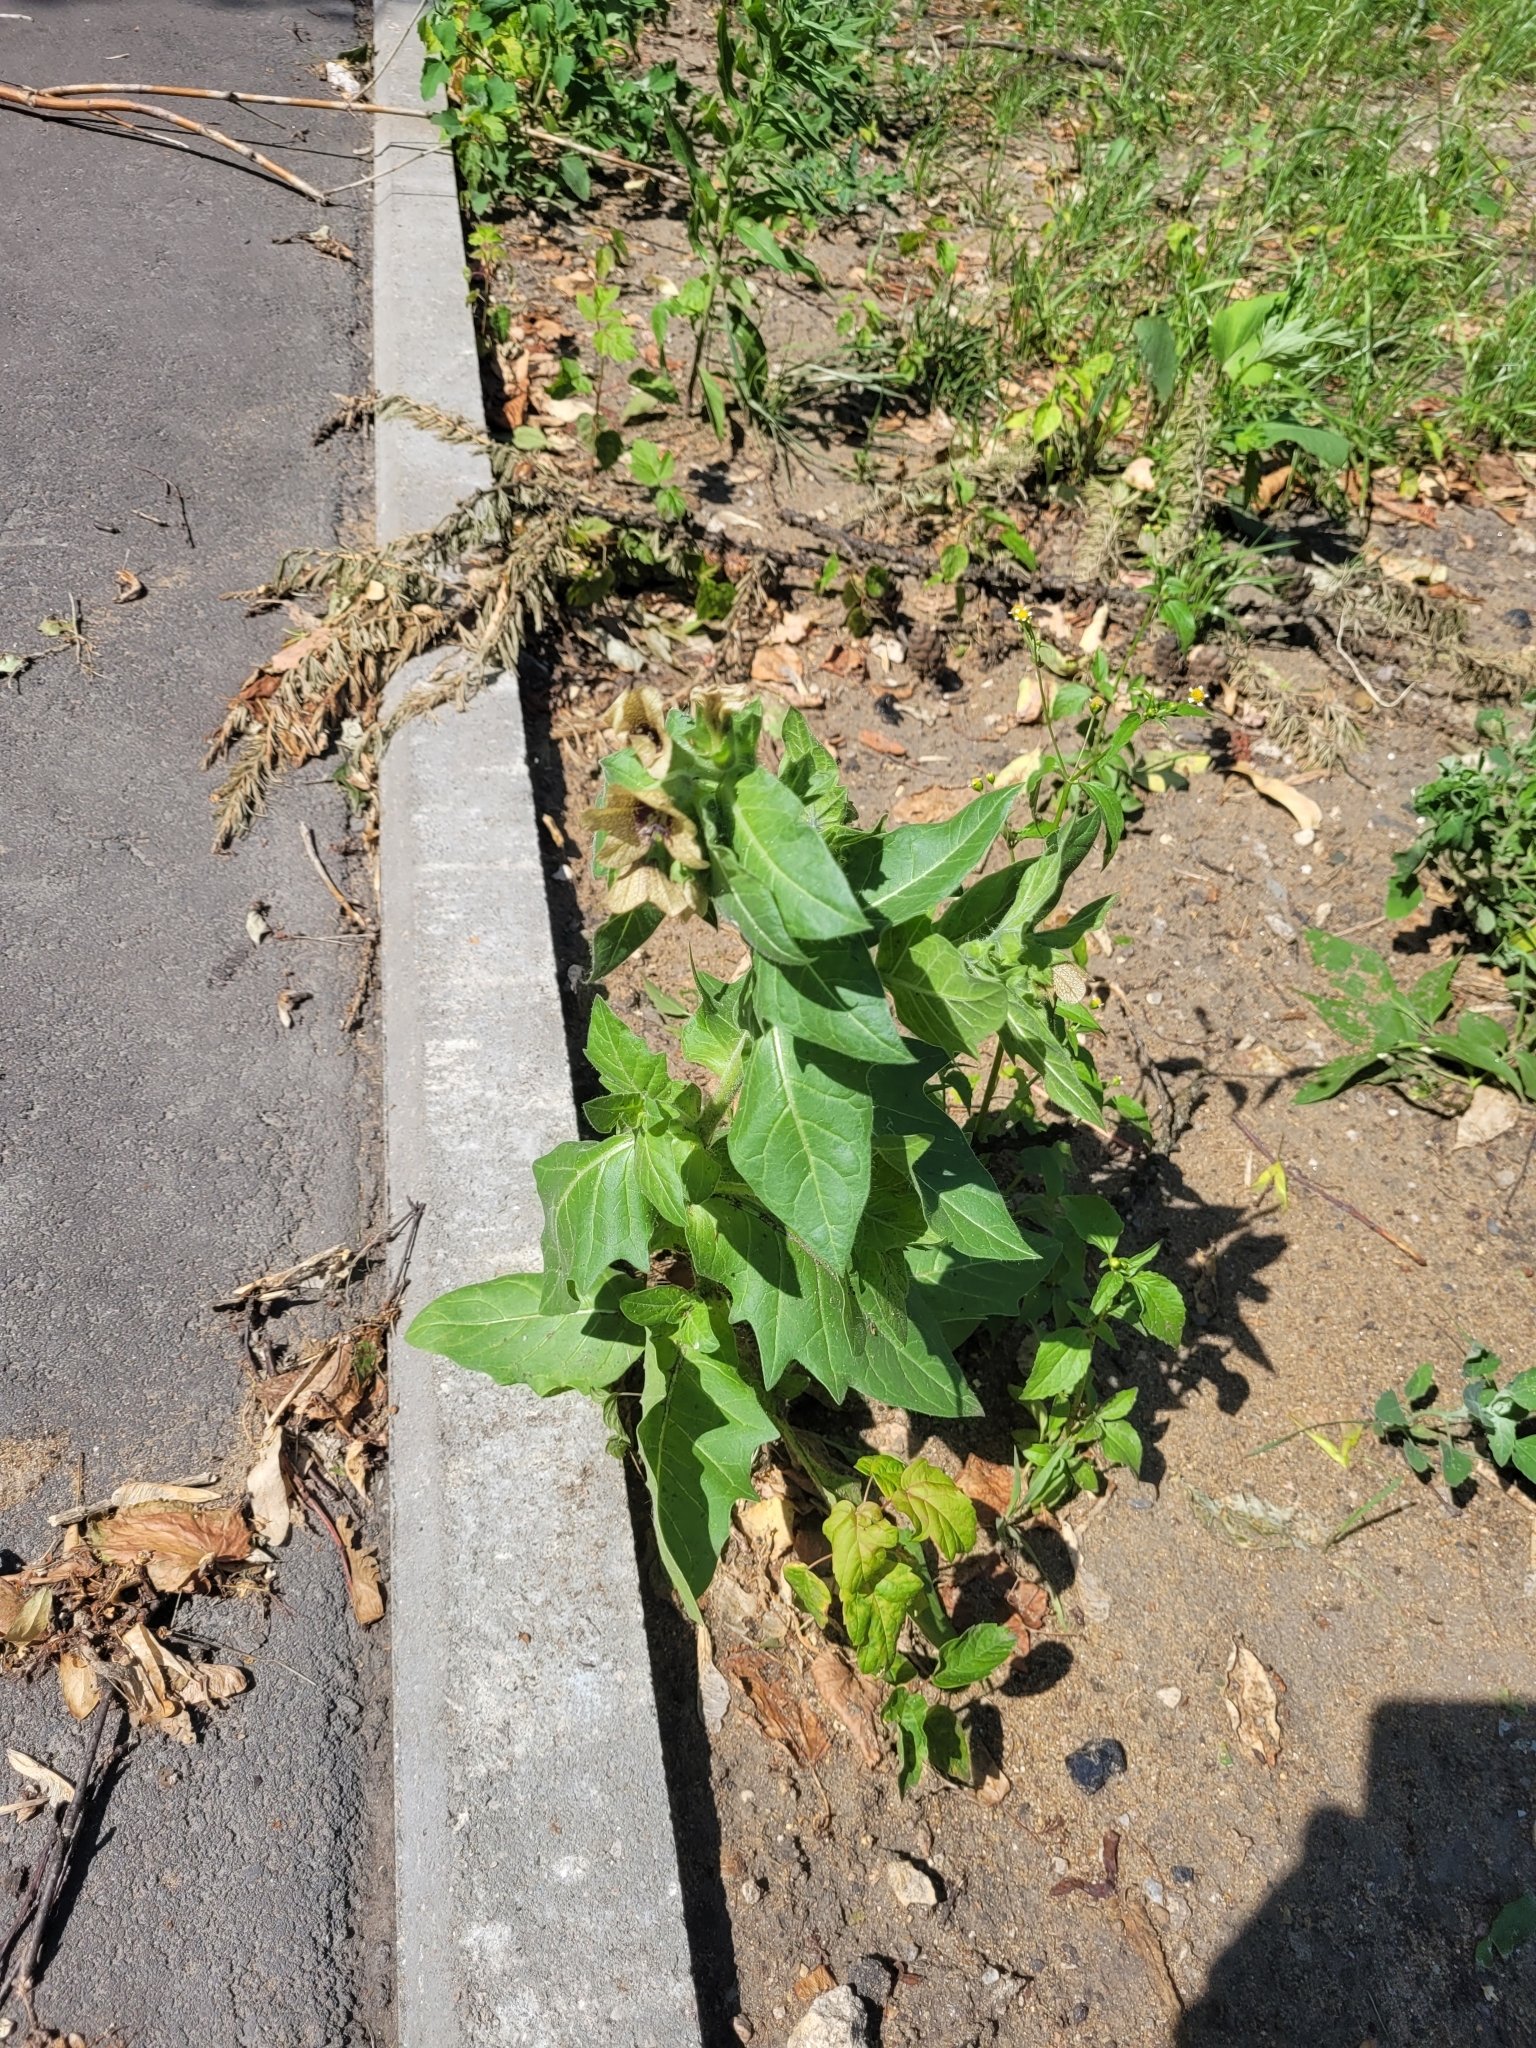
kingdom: Plantae
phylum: Tracheophyta
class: Magnoliopsida
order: Solanales
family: Solanaceae
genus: Hyoscyamus
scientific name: Hyoscyamus niger
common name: Henbane
